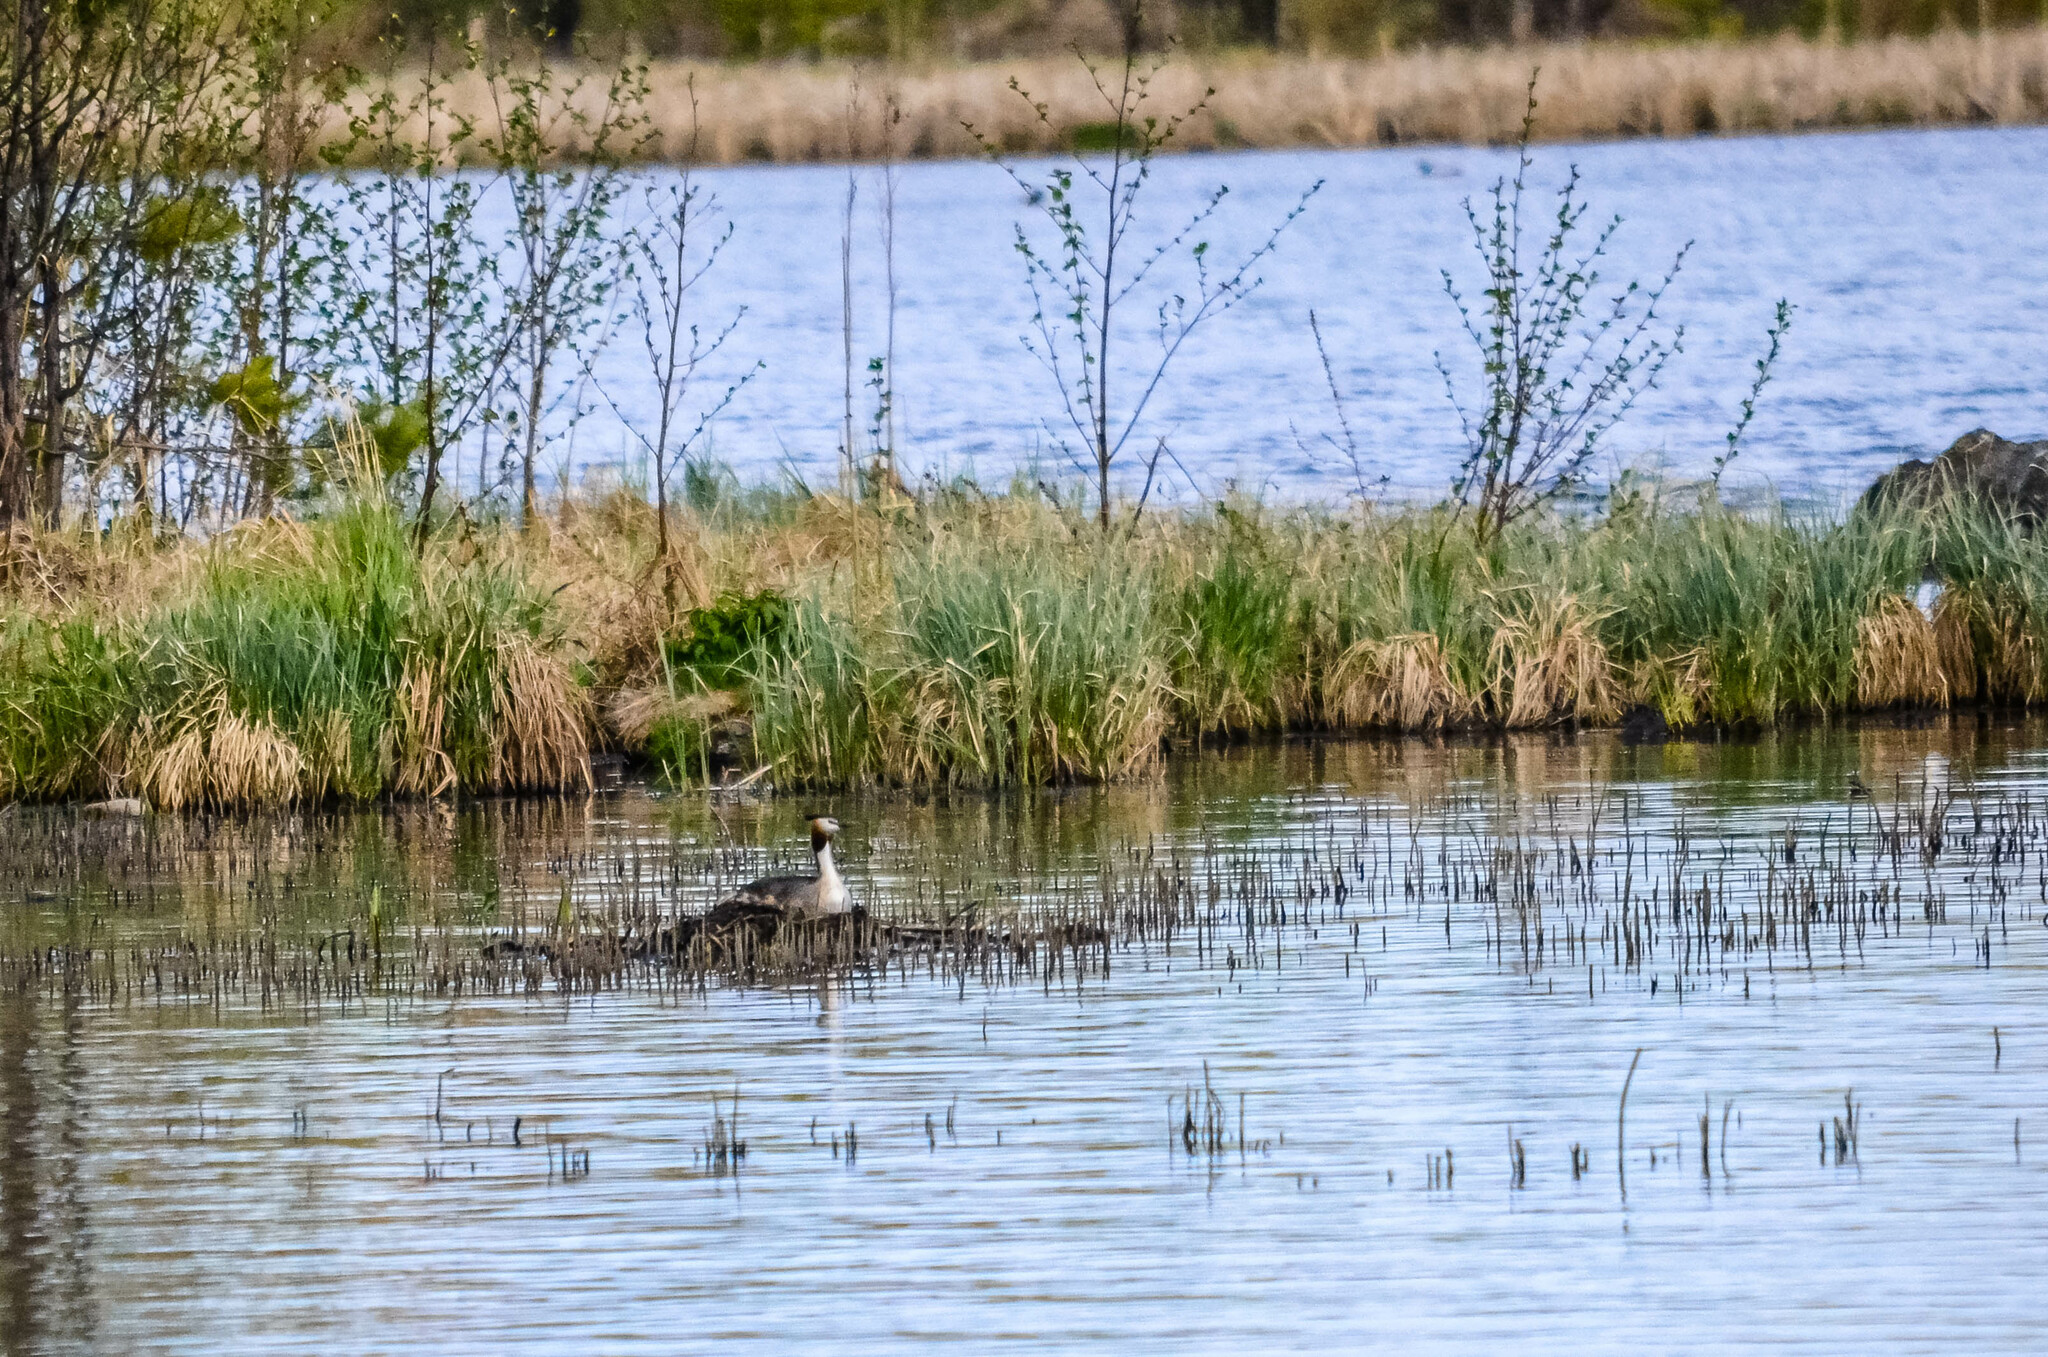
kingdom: Animalia
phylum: Chordata
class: Aves
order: Podicipediformes
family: Podicipedidae
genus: Podiceps
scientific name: Podiceps cristatus
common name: Great crested grebe
